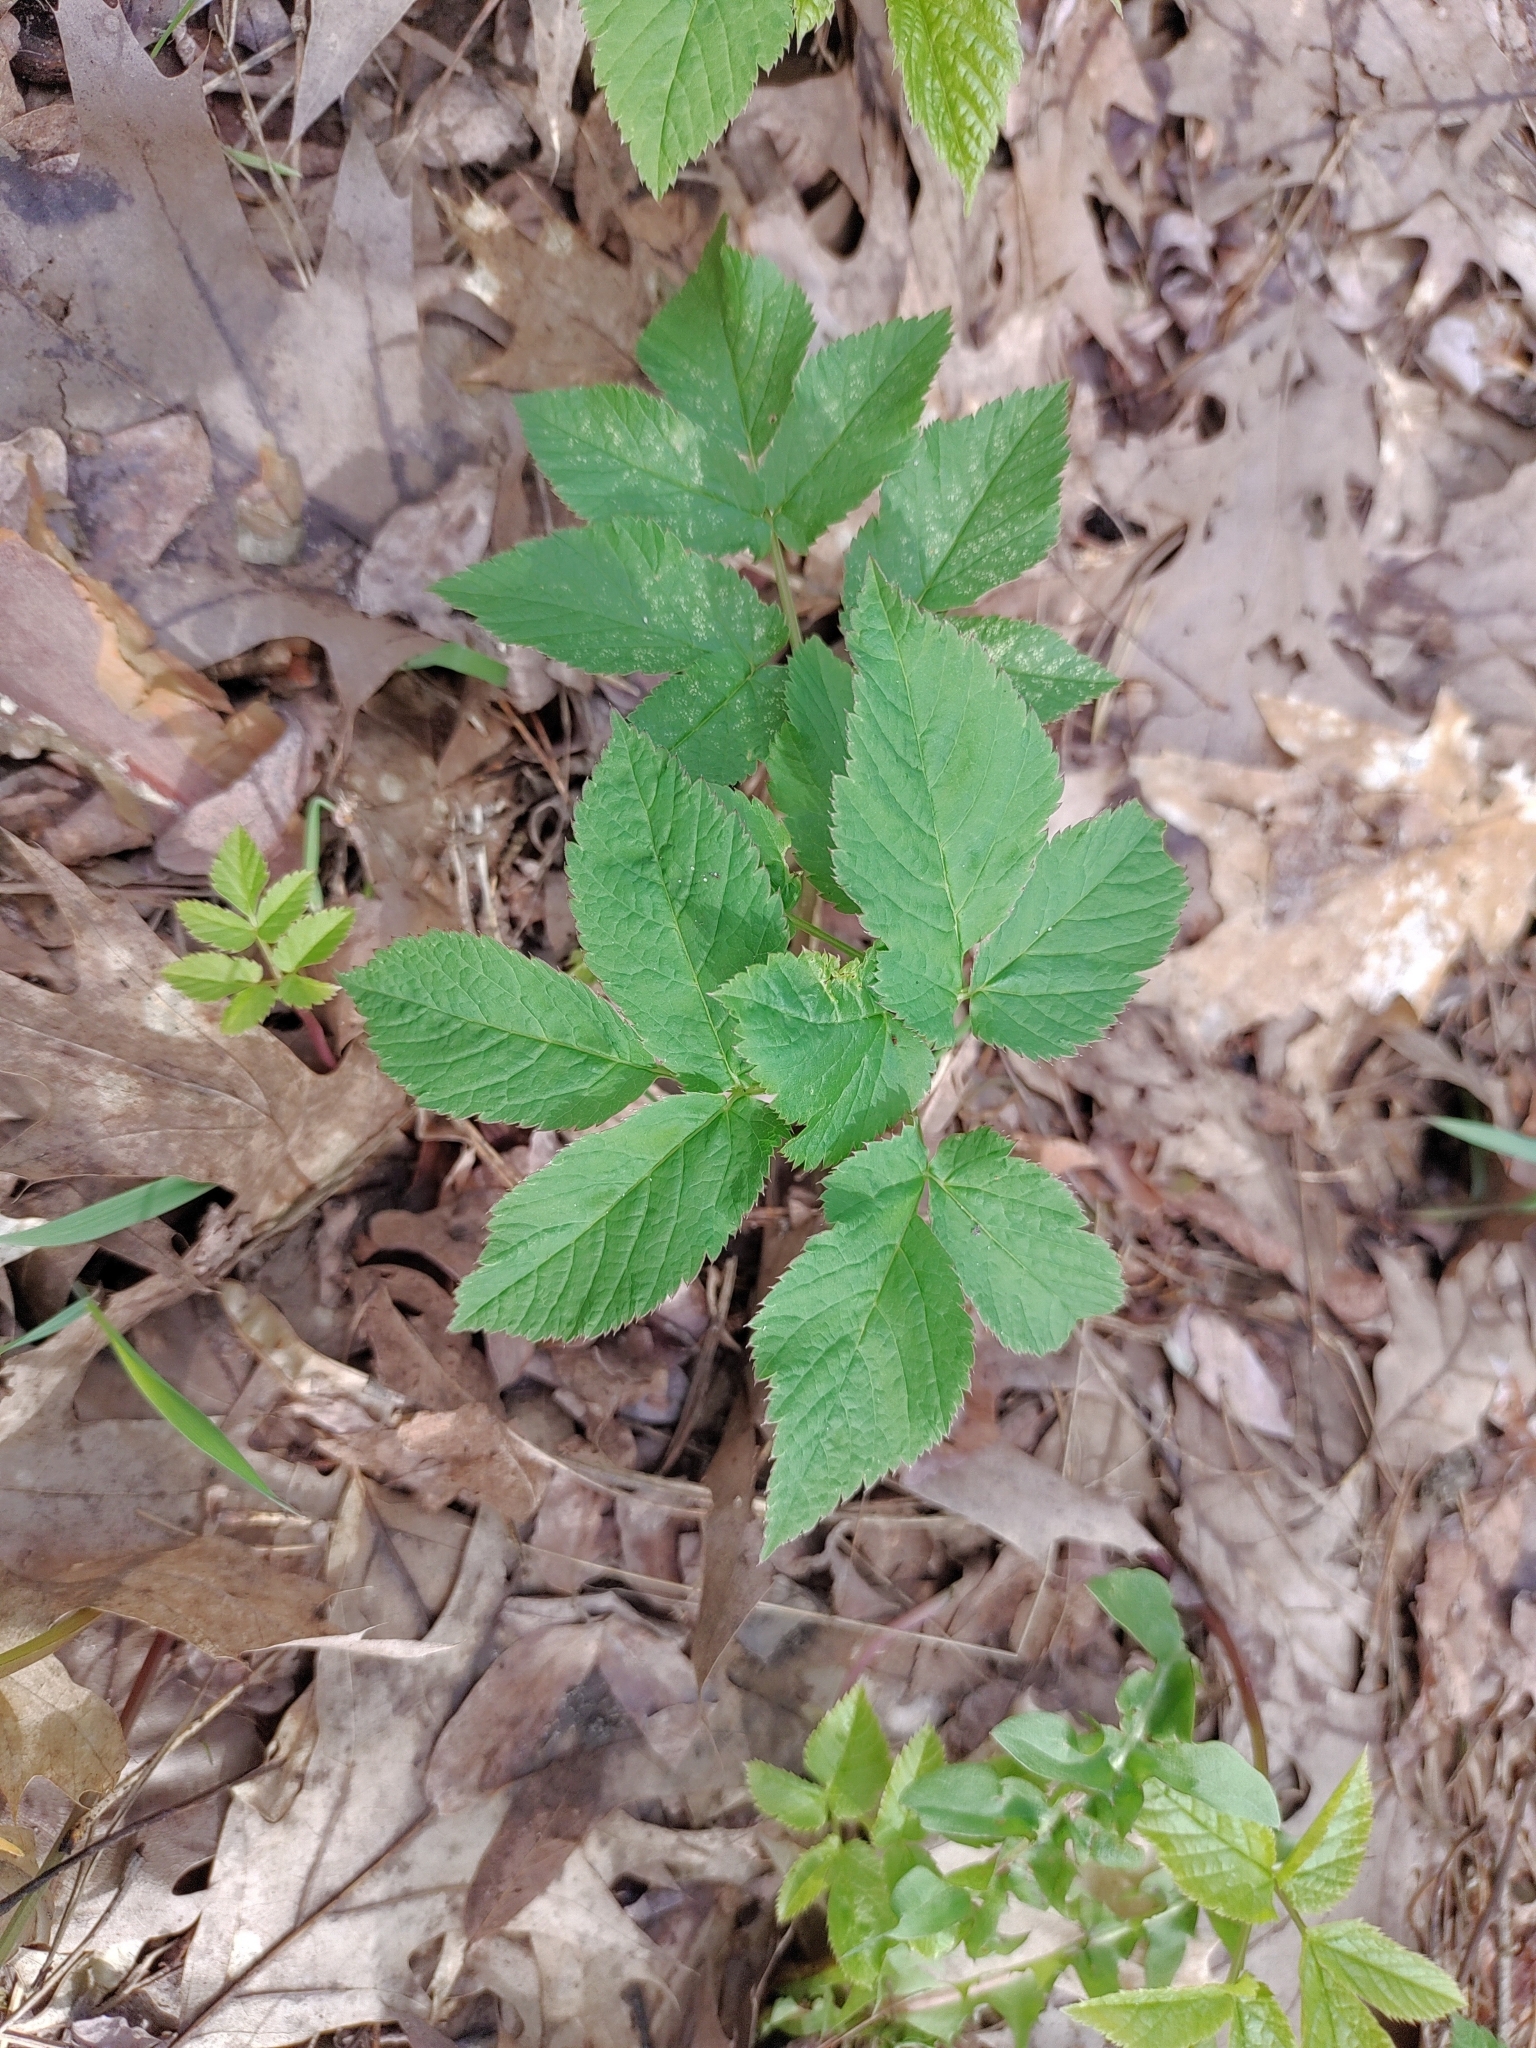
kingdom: Plantae
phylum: Tracheophyta
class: Magnoliopsida
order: Apiales
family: Apiaceae
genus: Aegopodium
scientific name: Aegopodium podagraria
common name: Ground-elder
